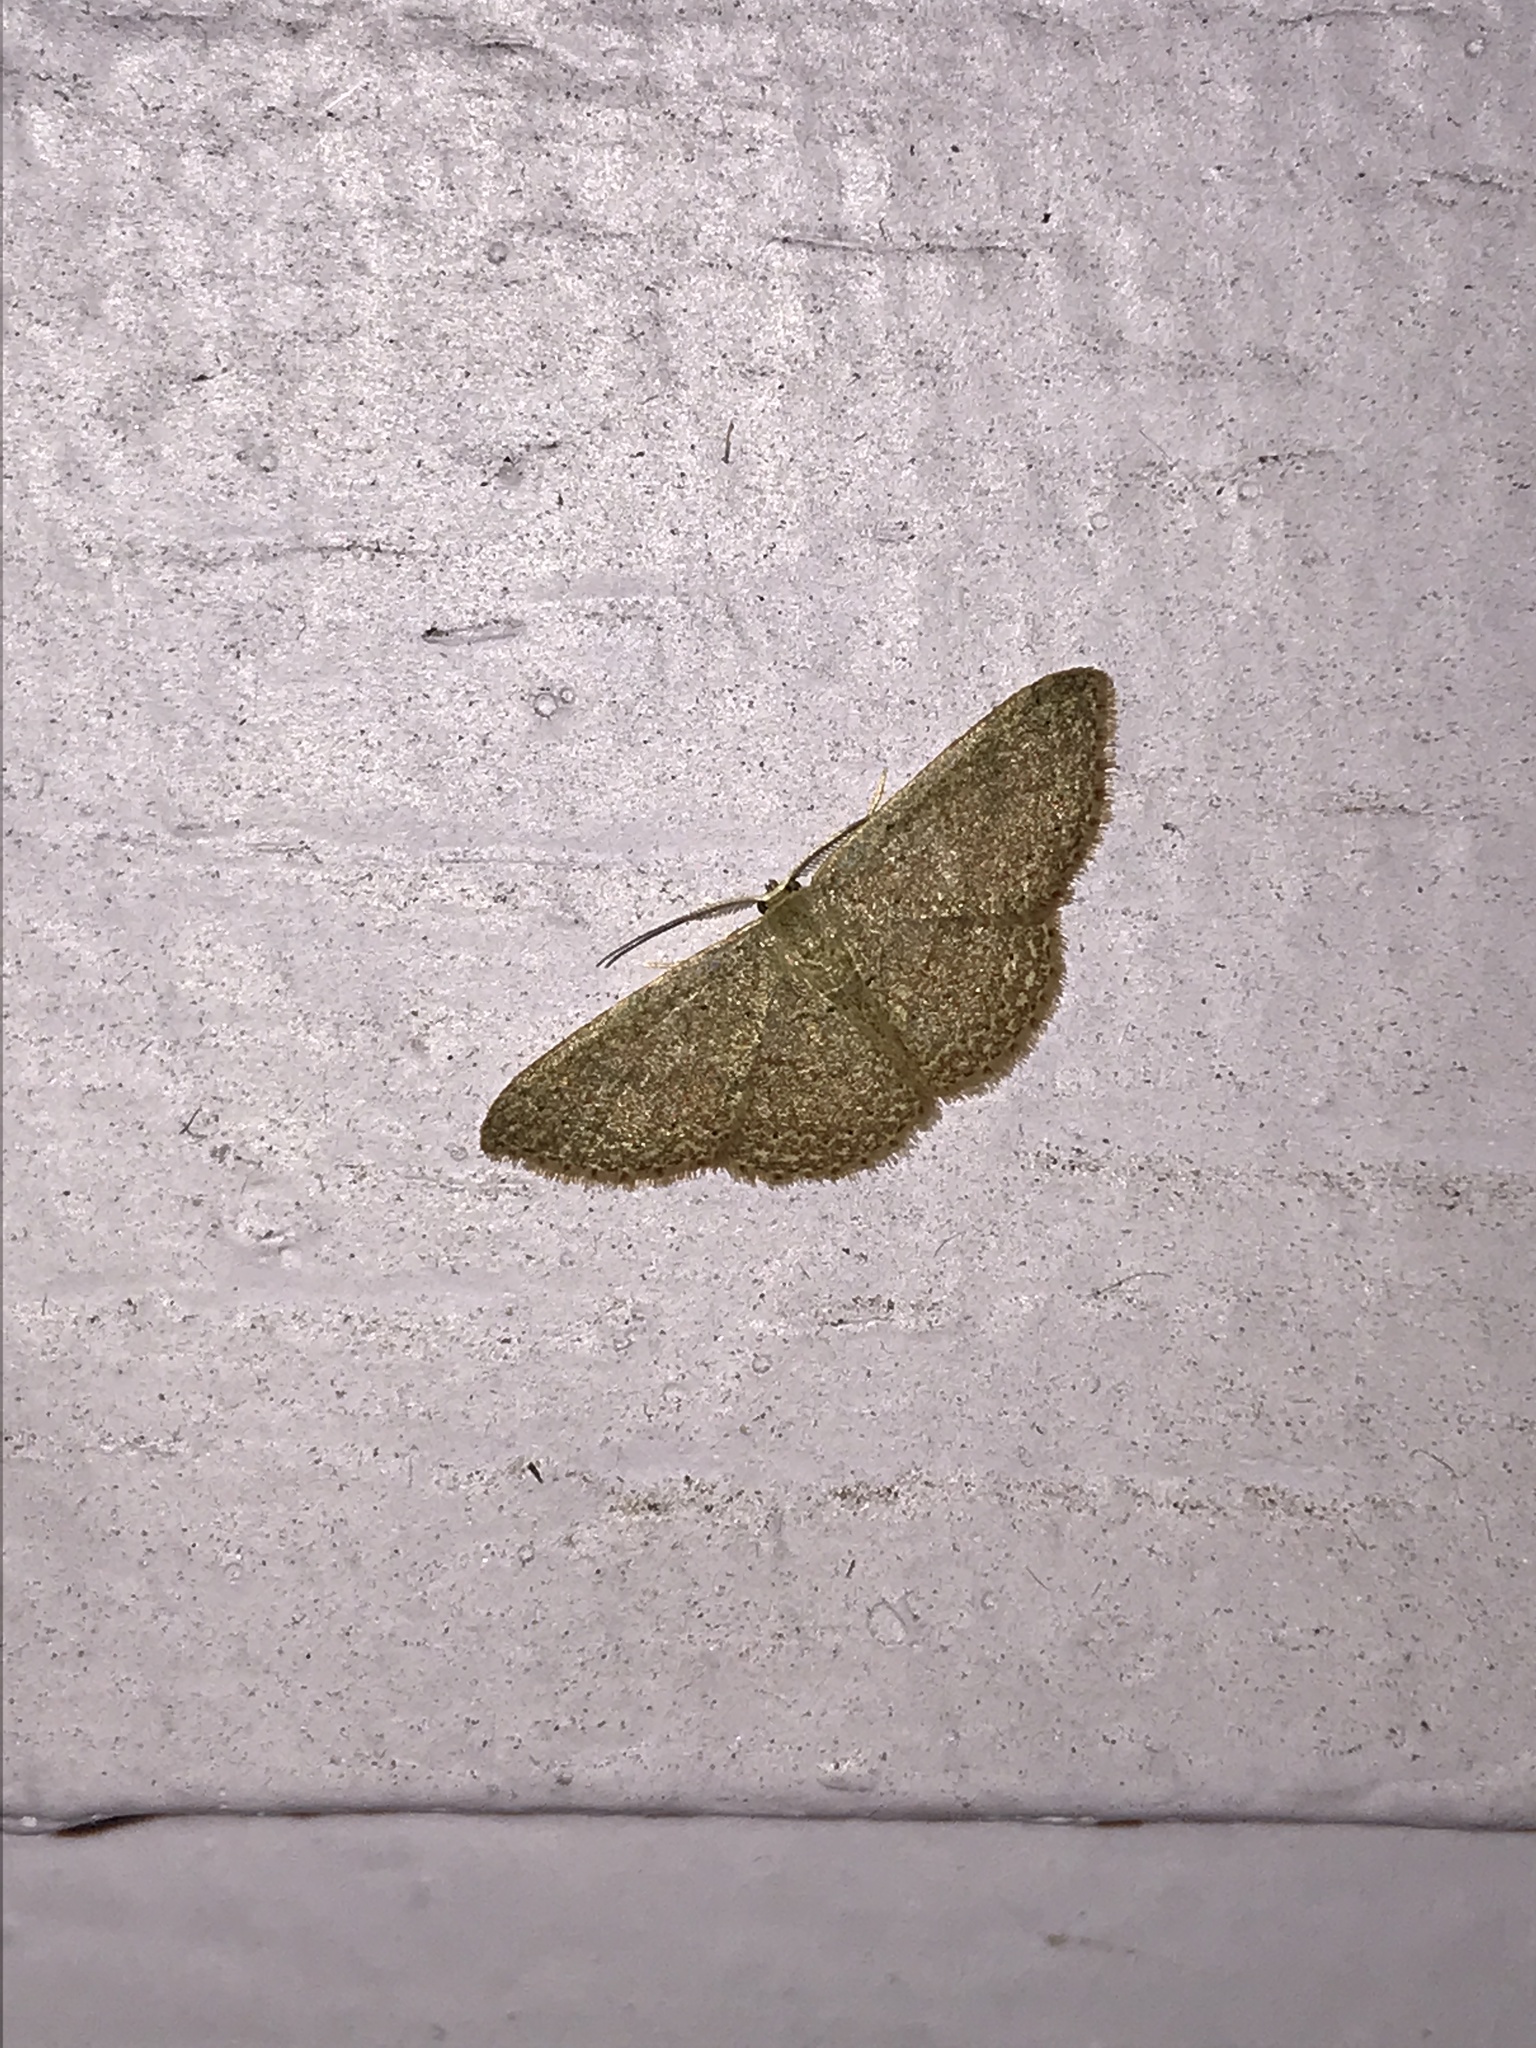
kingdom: Animalia
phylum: Arthropoda
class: Insecta
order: Lepidoptera
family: Geometridae
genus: Pleuroprucha
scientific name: Pleuroprucha insulsaria
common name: Common tan wave
